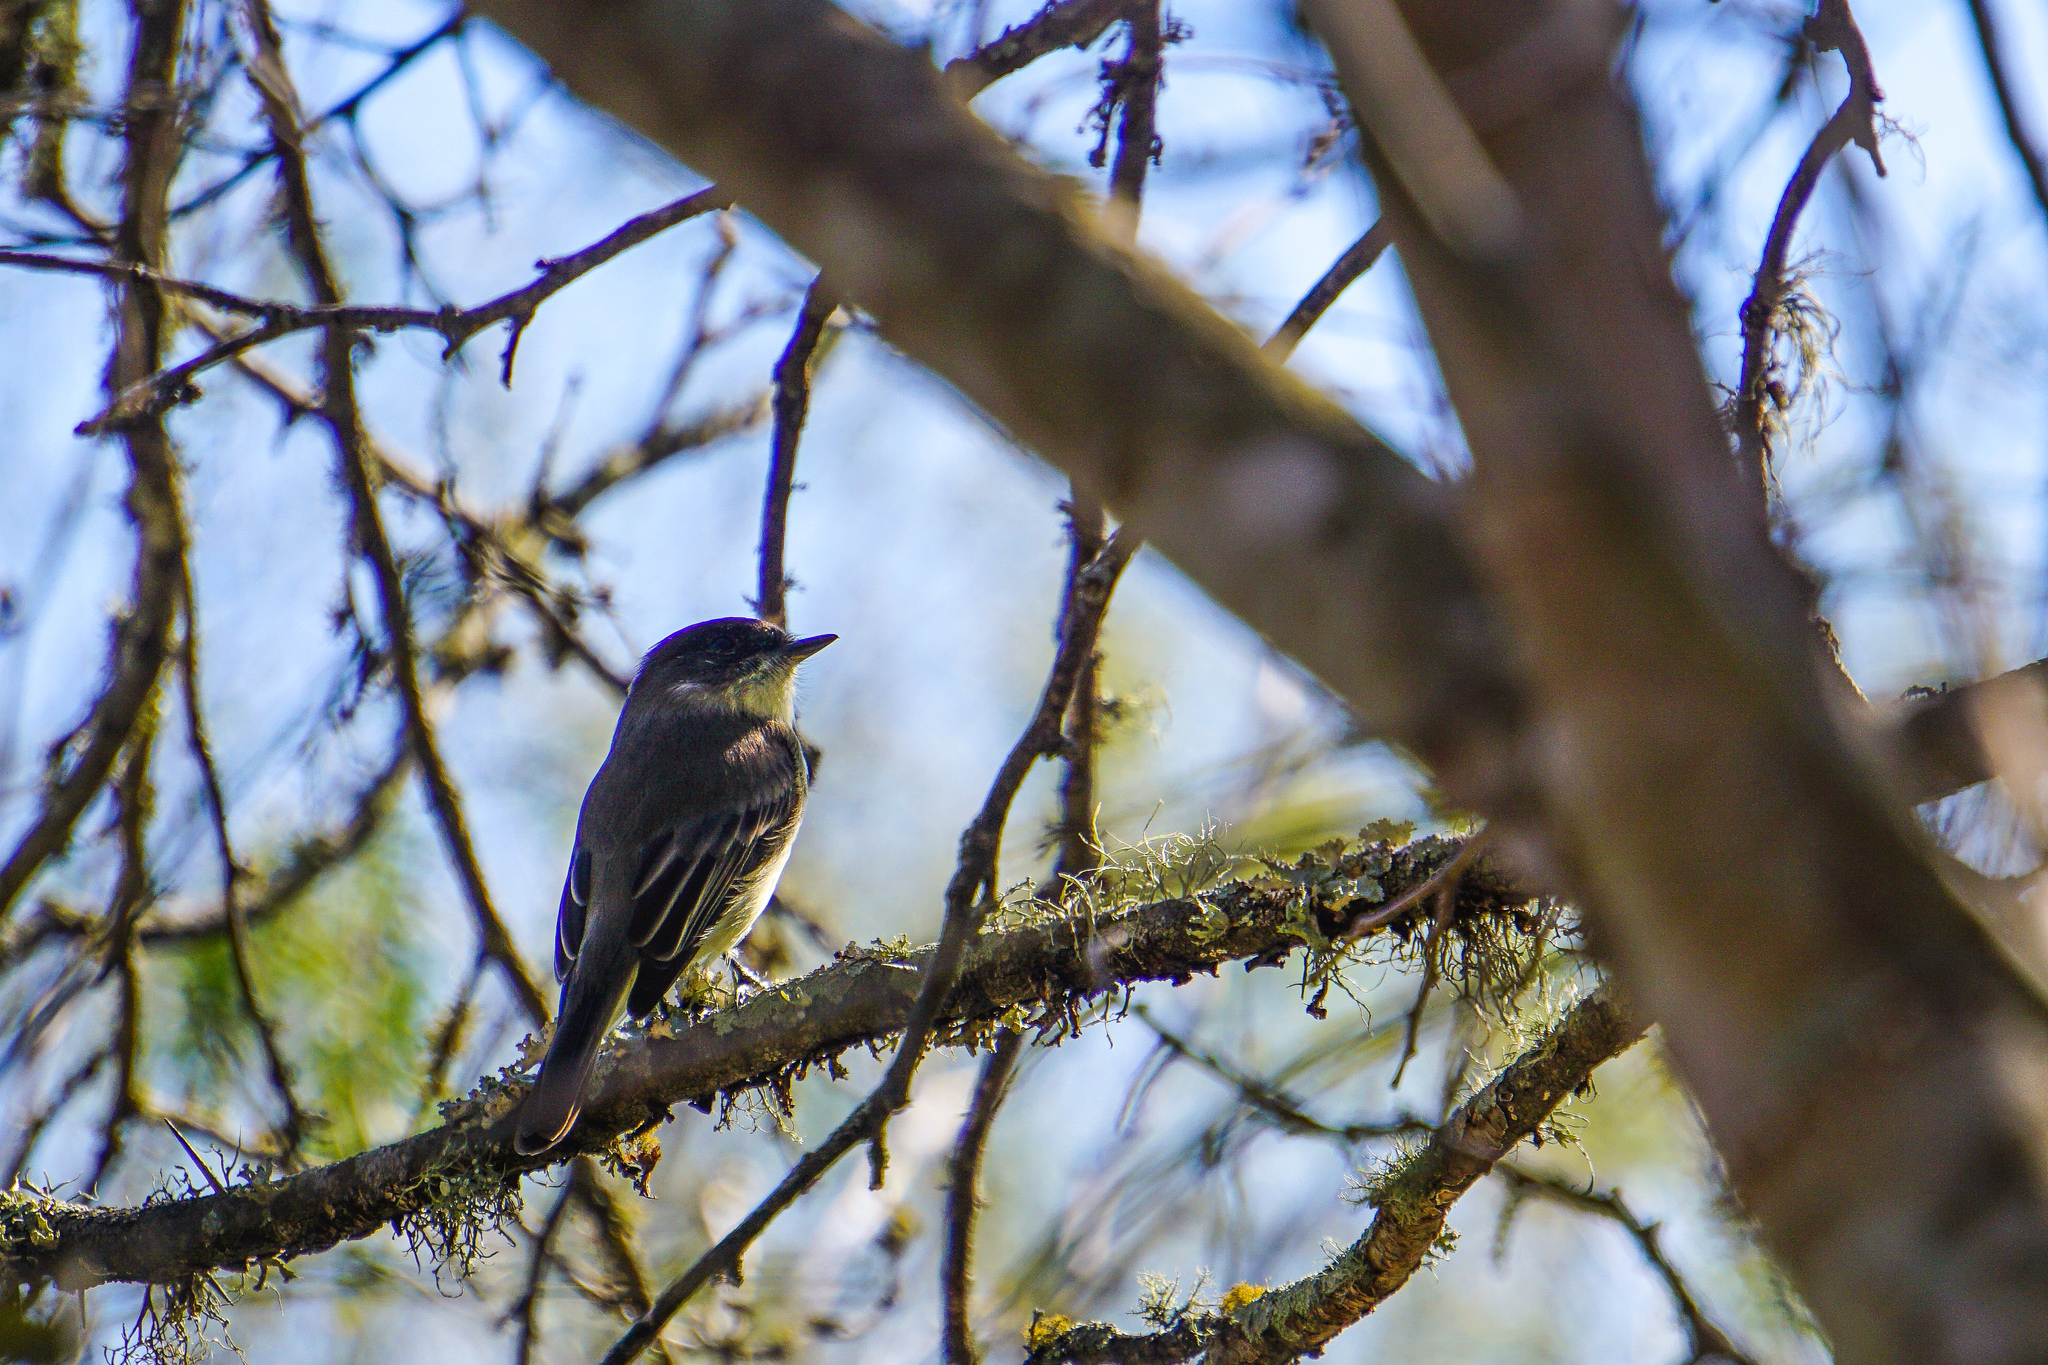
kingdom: Animalia
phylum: Chordata
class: Aves
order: Passeriformes
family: Tyrannidae
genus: Sayornis
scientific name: Sayornis phoebe
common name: Eastern phoebe
